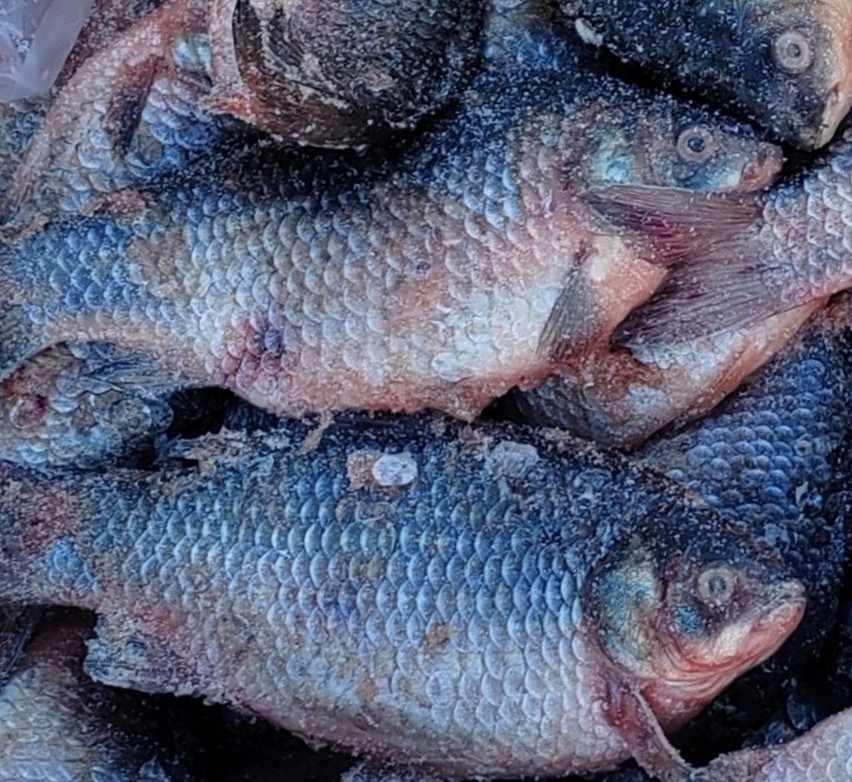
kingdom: Animalia
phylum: Chordata
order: Cypriniformes
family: Cyprinidae
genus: Carassius
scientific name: Carassius gibelio
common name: Prussian carp
